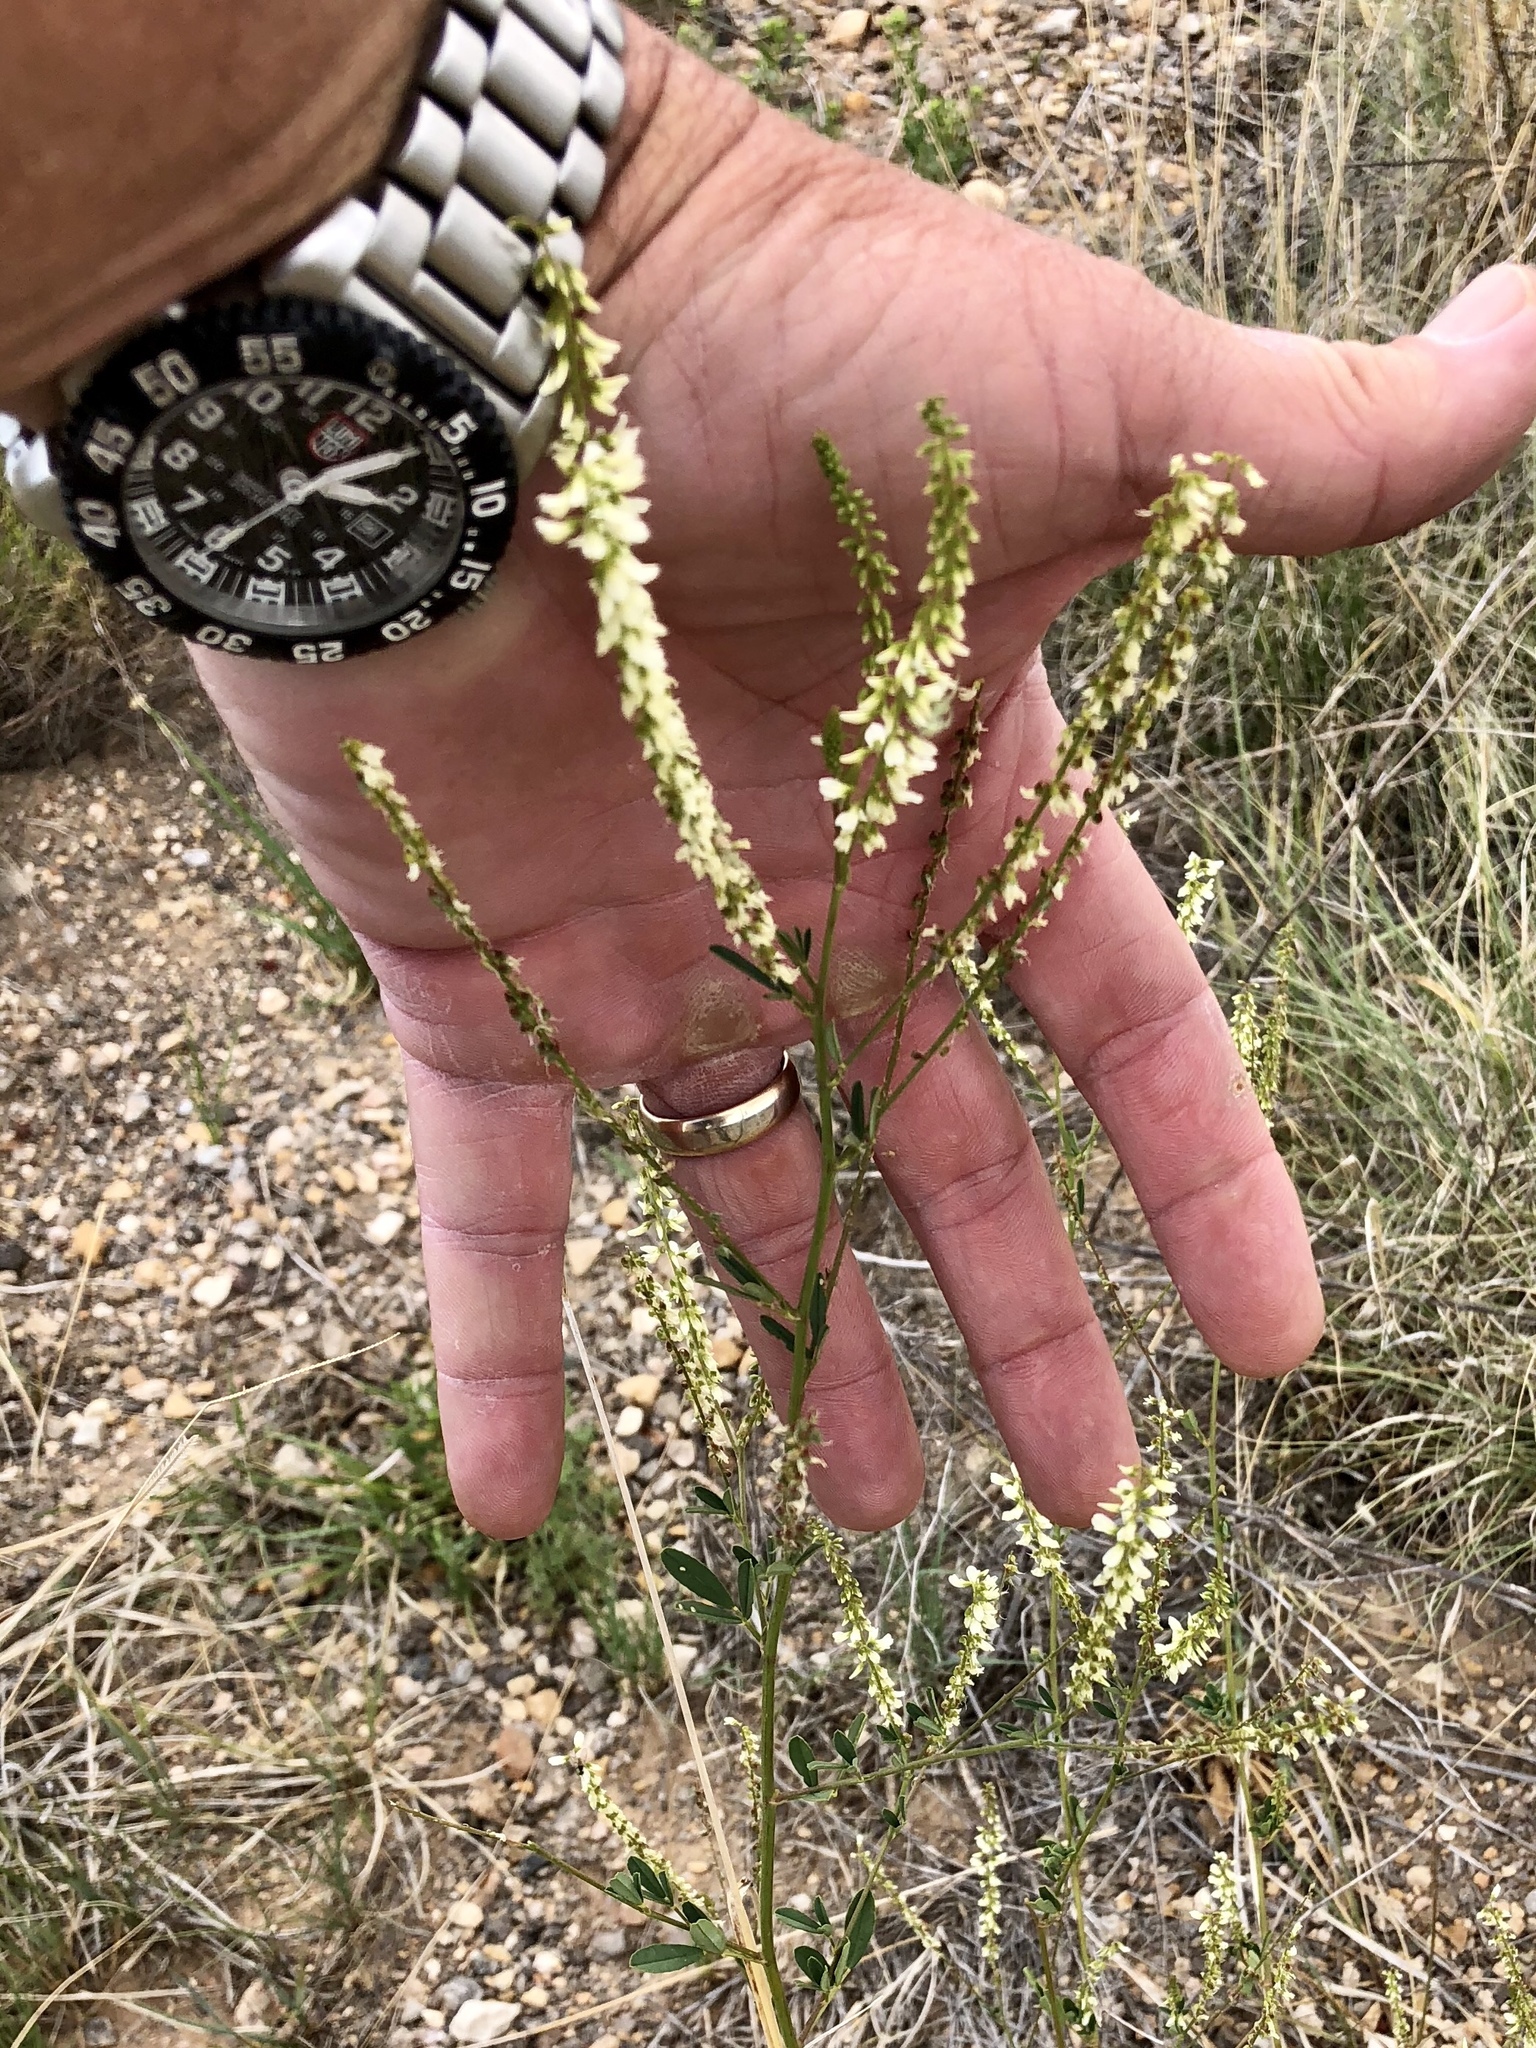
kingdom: Plantae
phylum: Tracheophyta
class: Magnoliopsida
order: Fabales
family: Fabaceae
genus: Melilotus
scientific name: Melilotus albus
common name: White melilot
